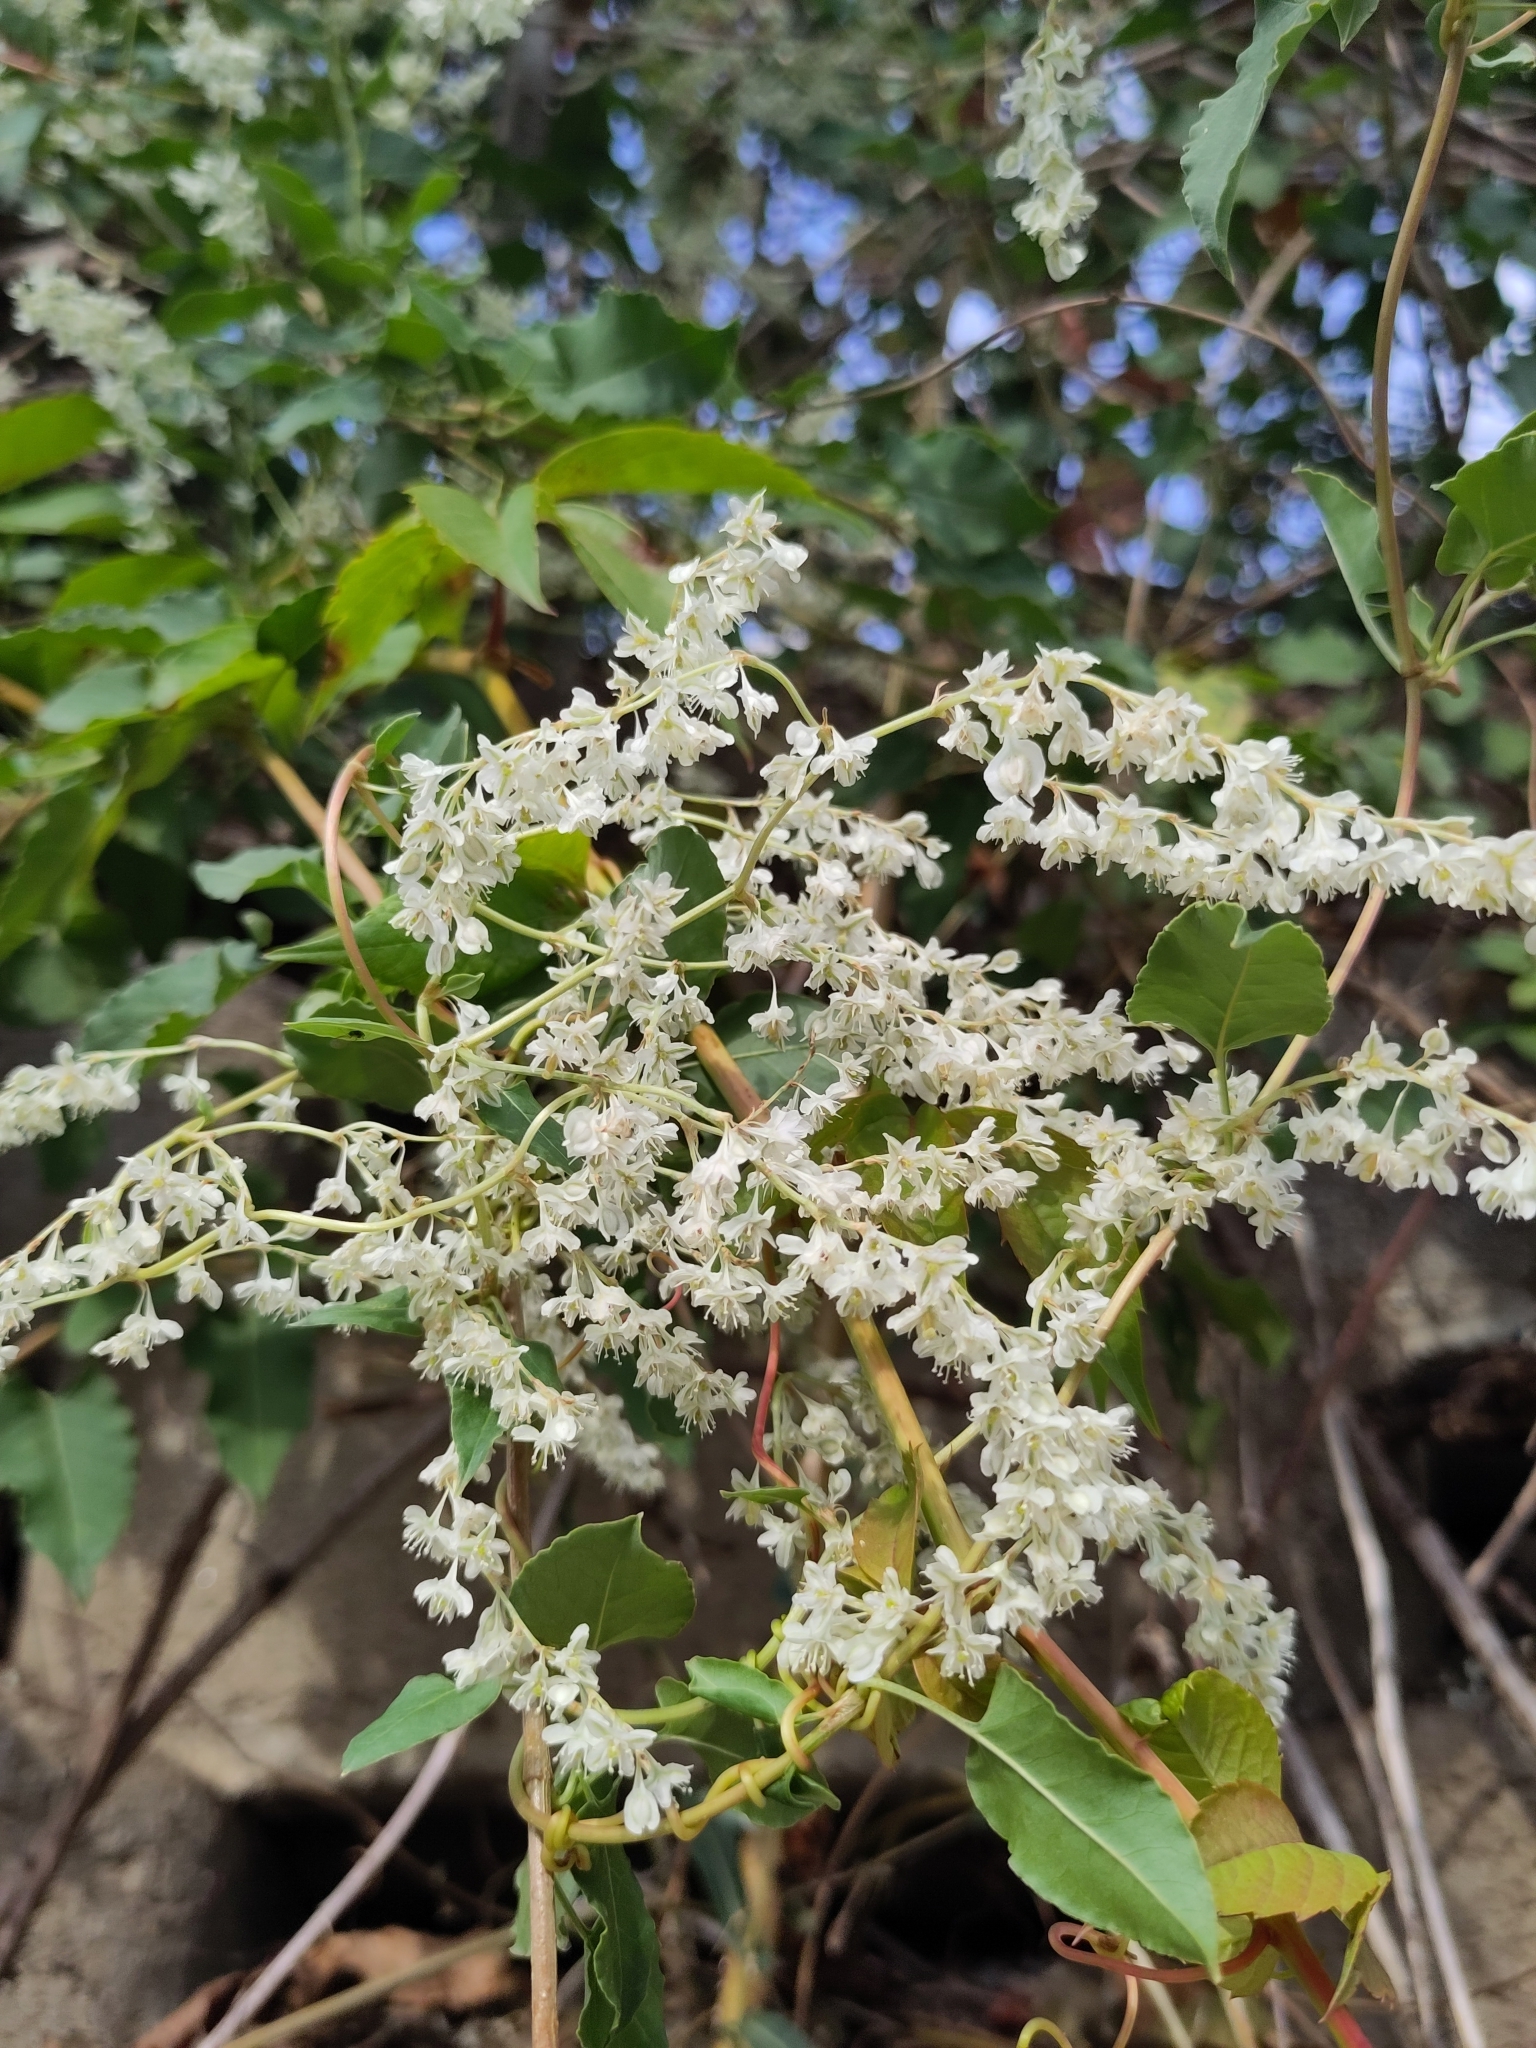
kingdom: Plantae
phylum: Tracheophyta
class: Magnoliopsida
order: Caryophyllales
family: Polygonaceae
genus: Fallopia
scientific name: Fallopia baldschuanica
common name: Russian-vine
